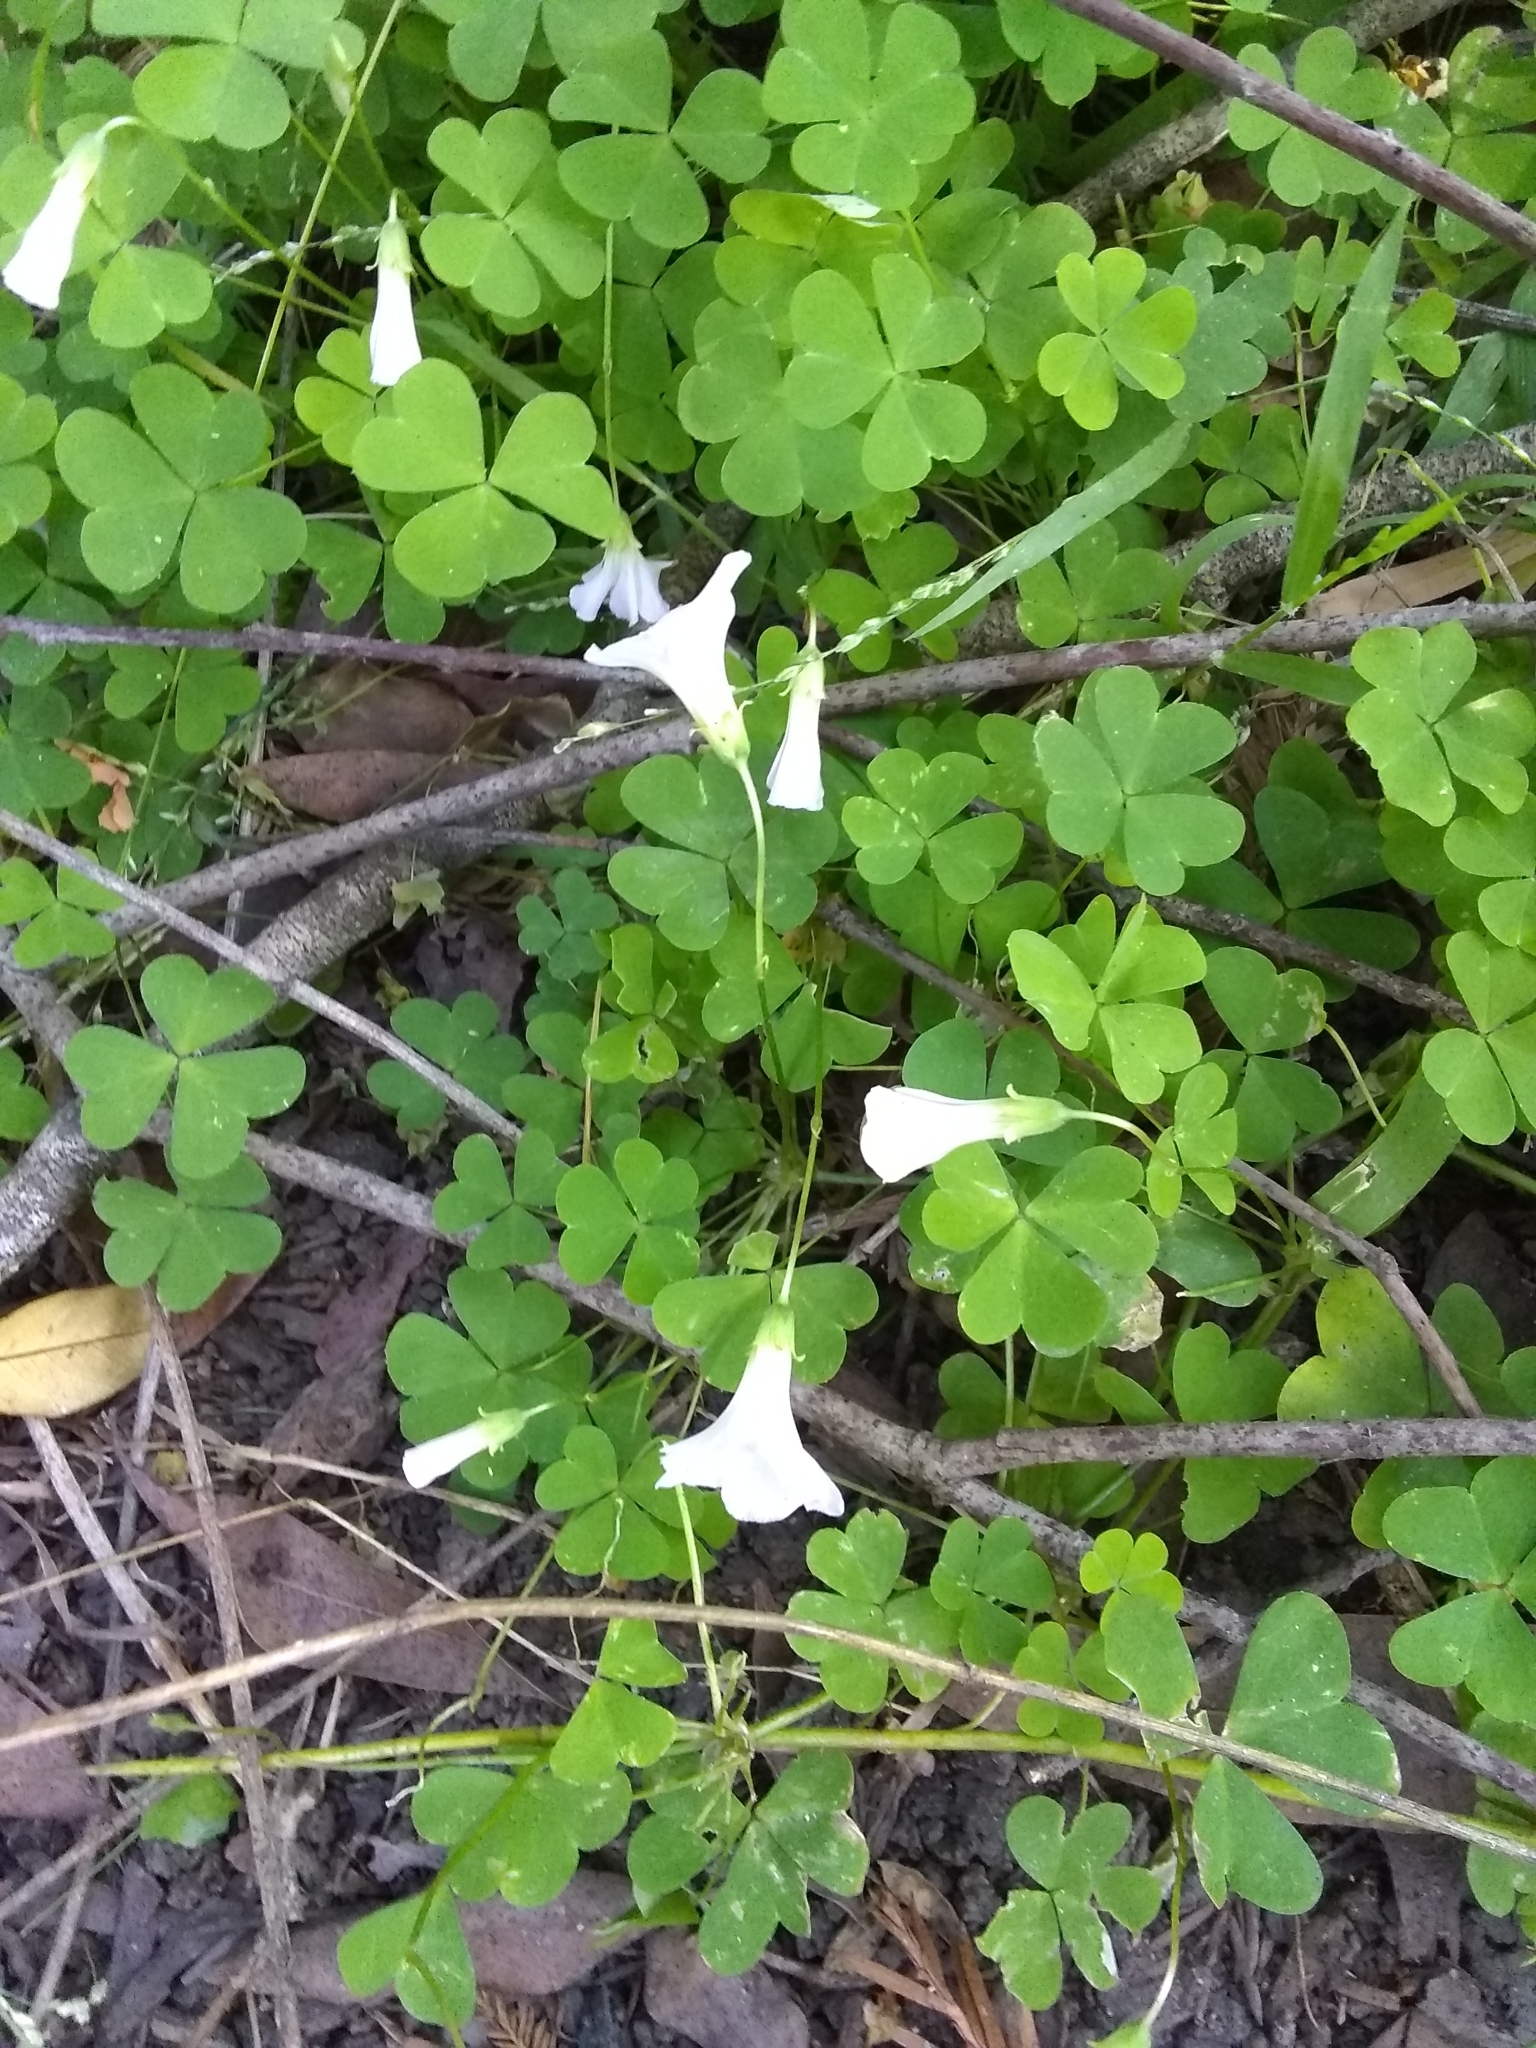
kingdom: Plantae
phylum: Tracheophyta
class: Magnoliopsida
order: Oxalidales
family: Oxalidaceae
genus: Oxalis
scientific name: Oxalis incarnata
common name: Pale pink-sorrel
